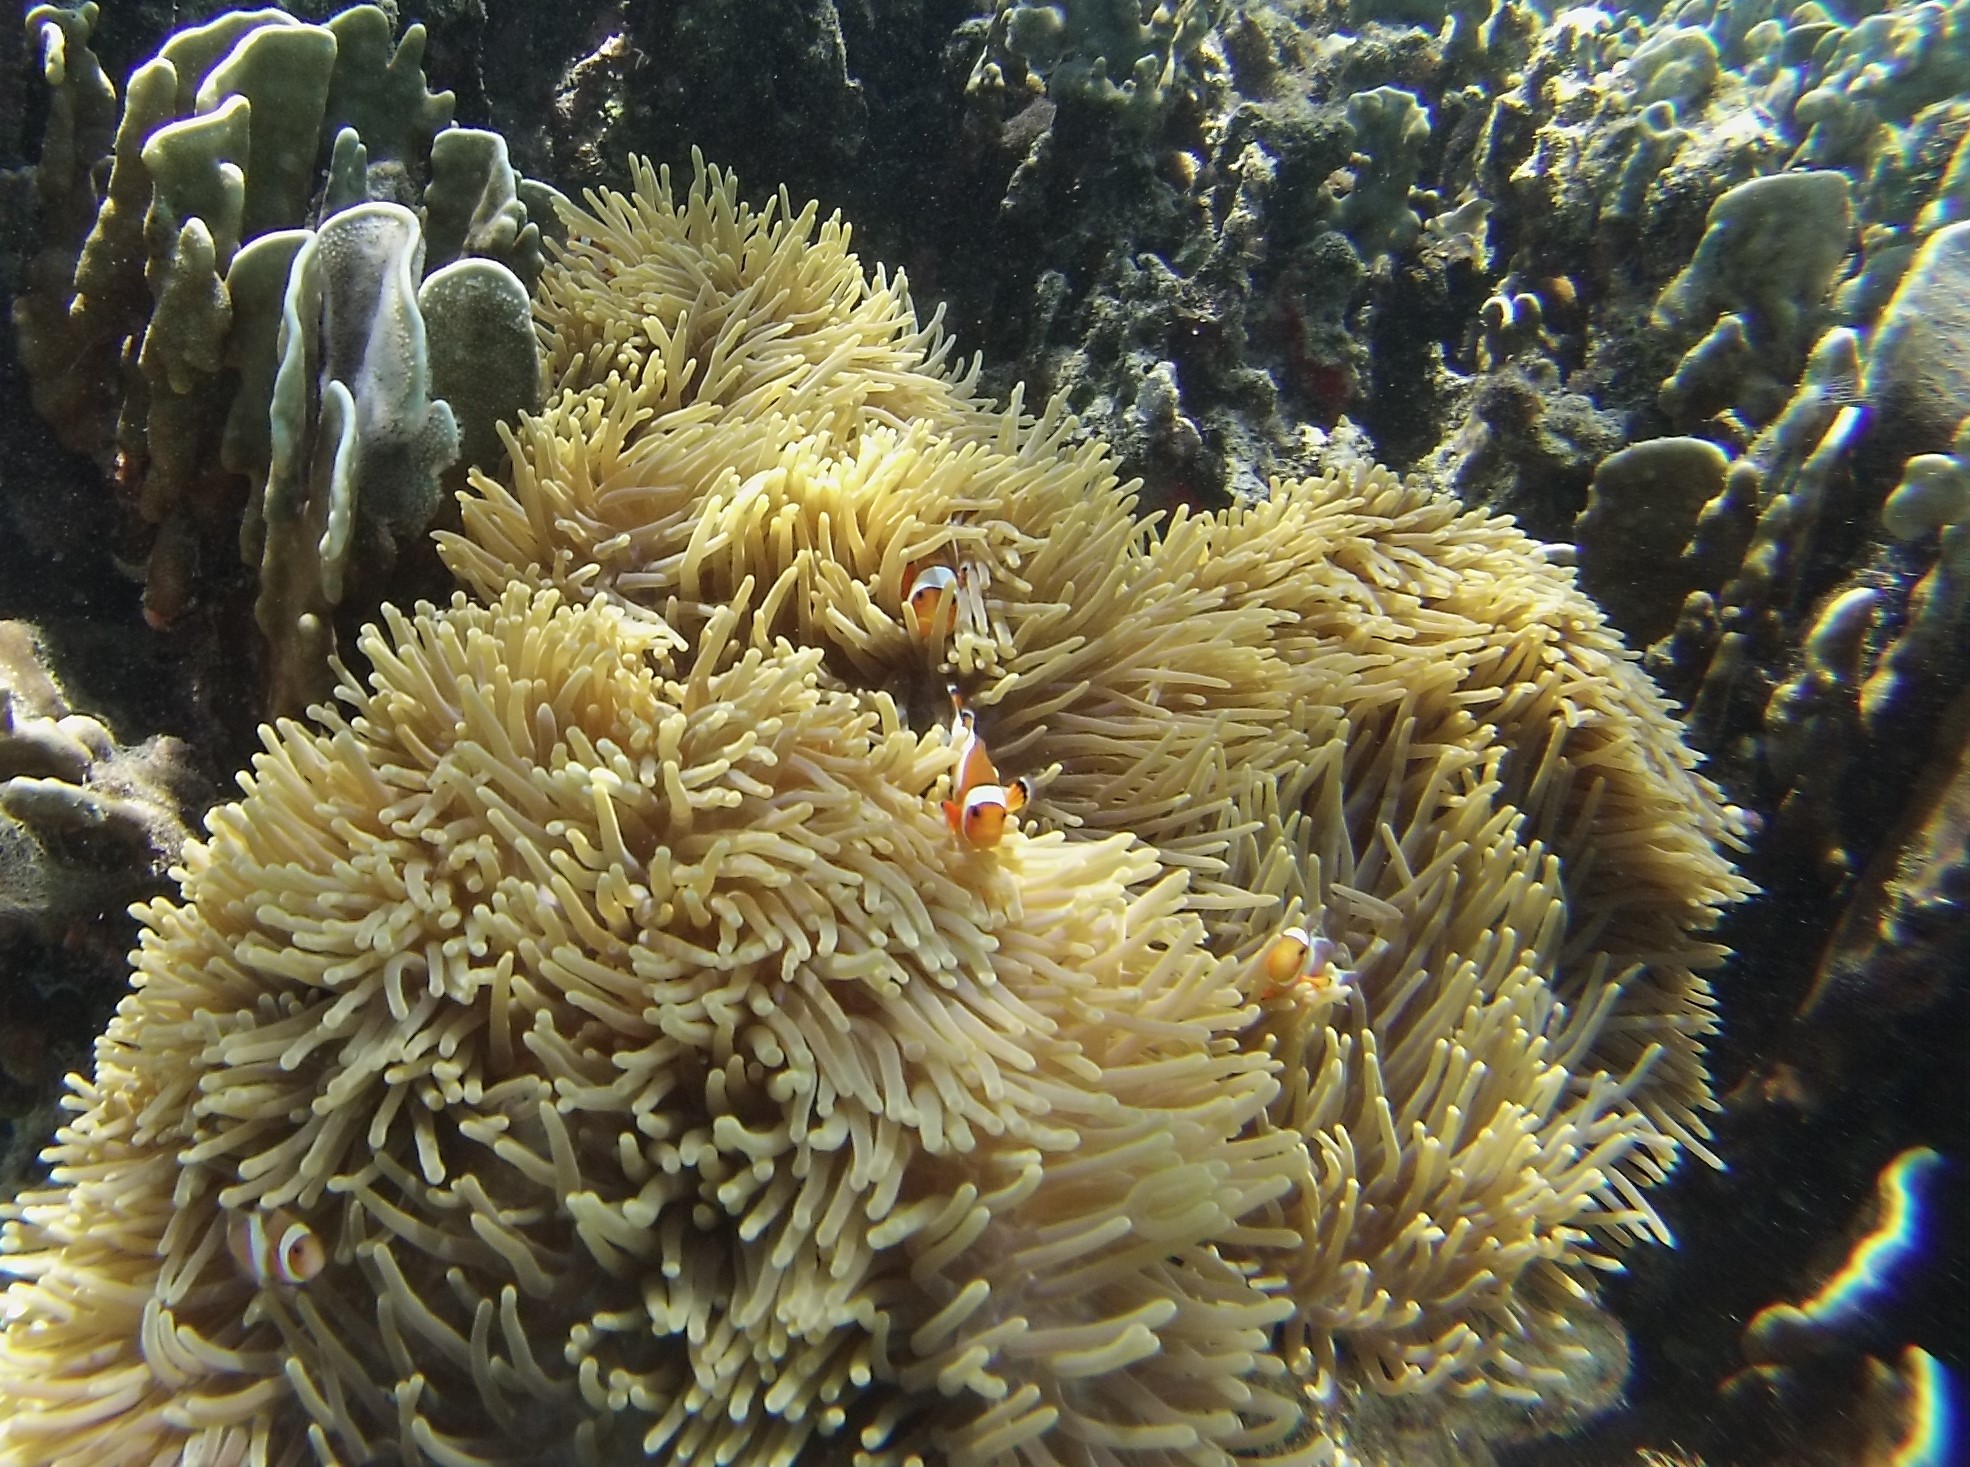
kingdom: Animalia
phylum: Chordata
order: Perciformes
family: Pomacentridae
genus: Amphiprion
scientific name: Amphiprion ocellaris
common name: Clown anemonefish
